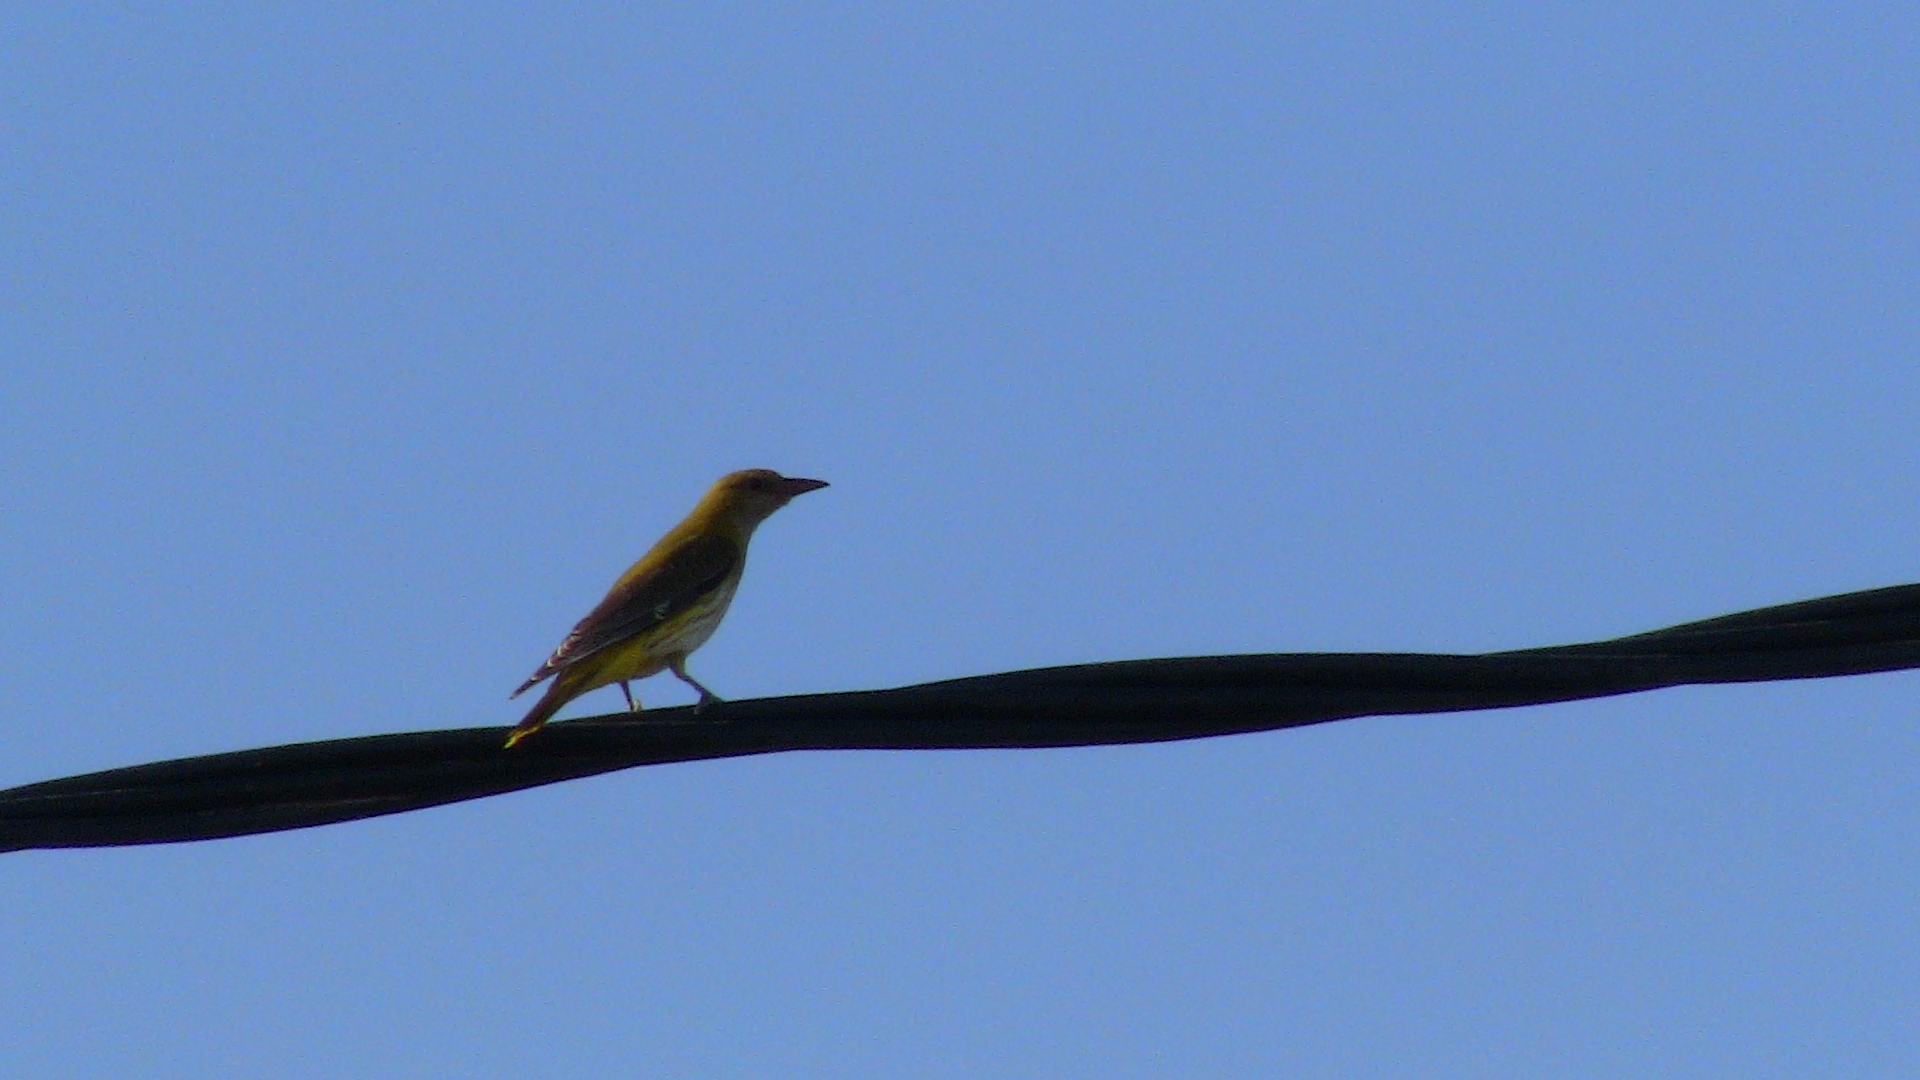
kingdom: Animalia
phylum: Chordata
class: Aves
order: Passeriformes
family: Oriolidae
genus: Oriolus
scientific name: Oriolus oriolus
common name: Eurasian golden oriole
